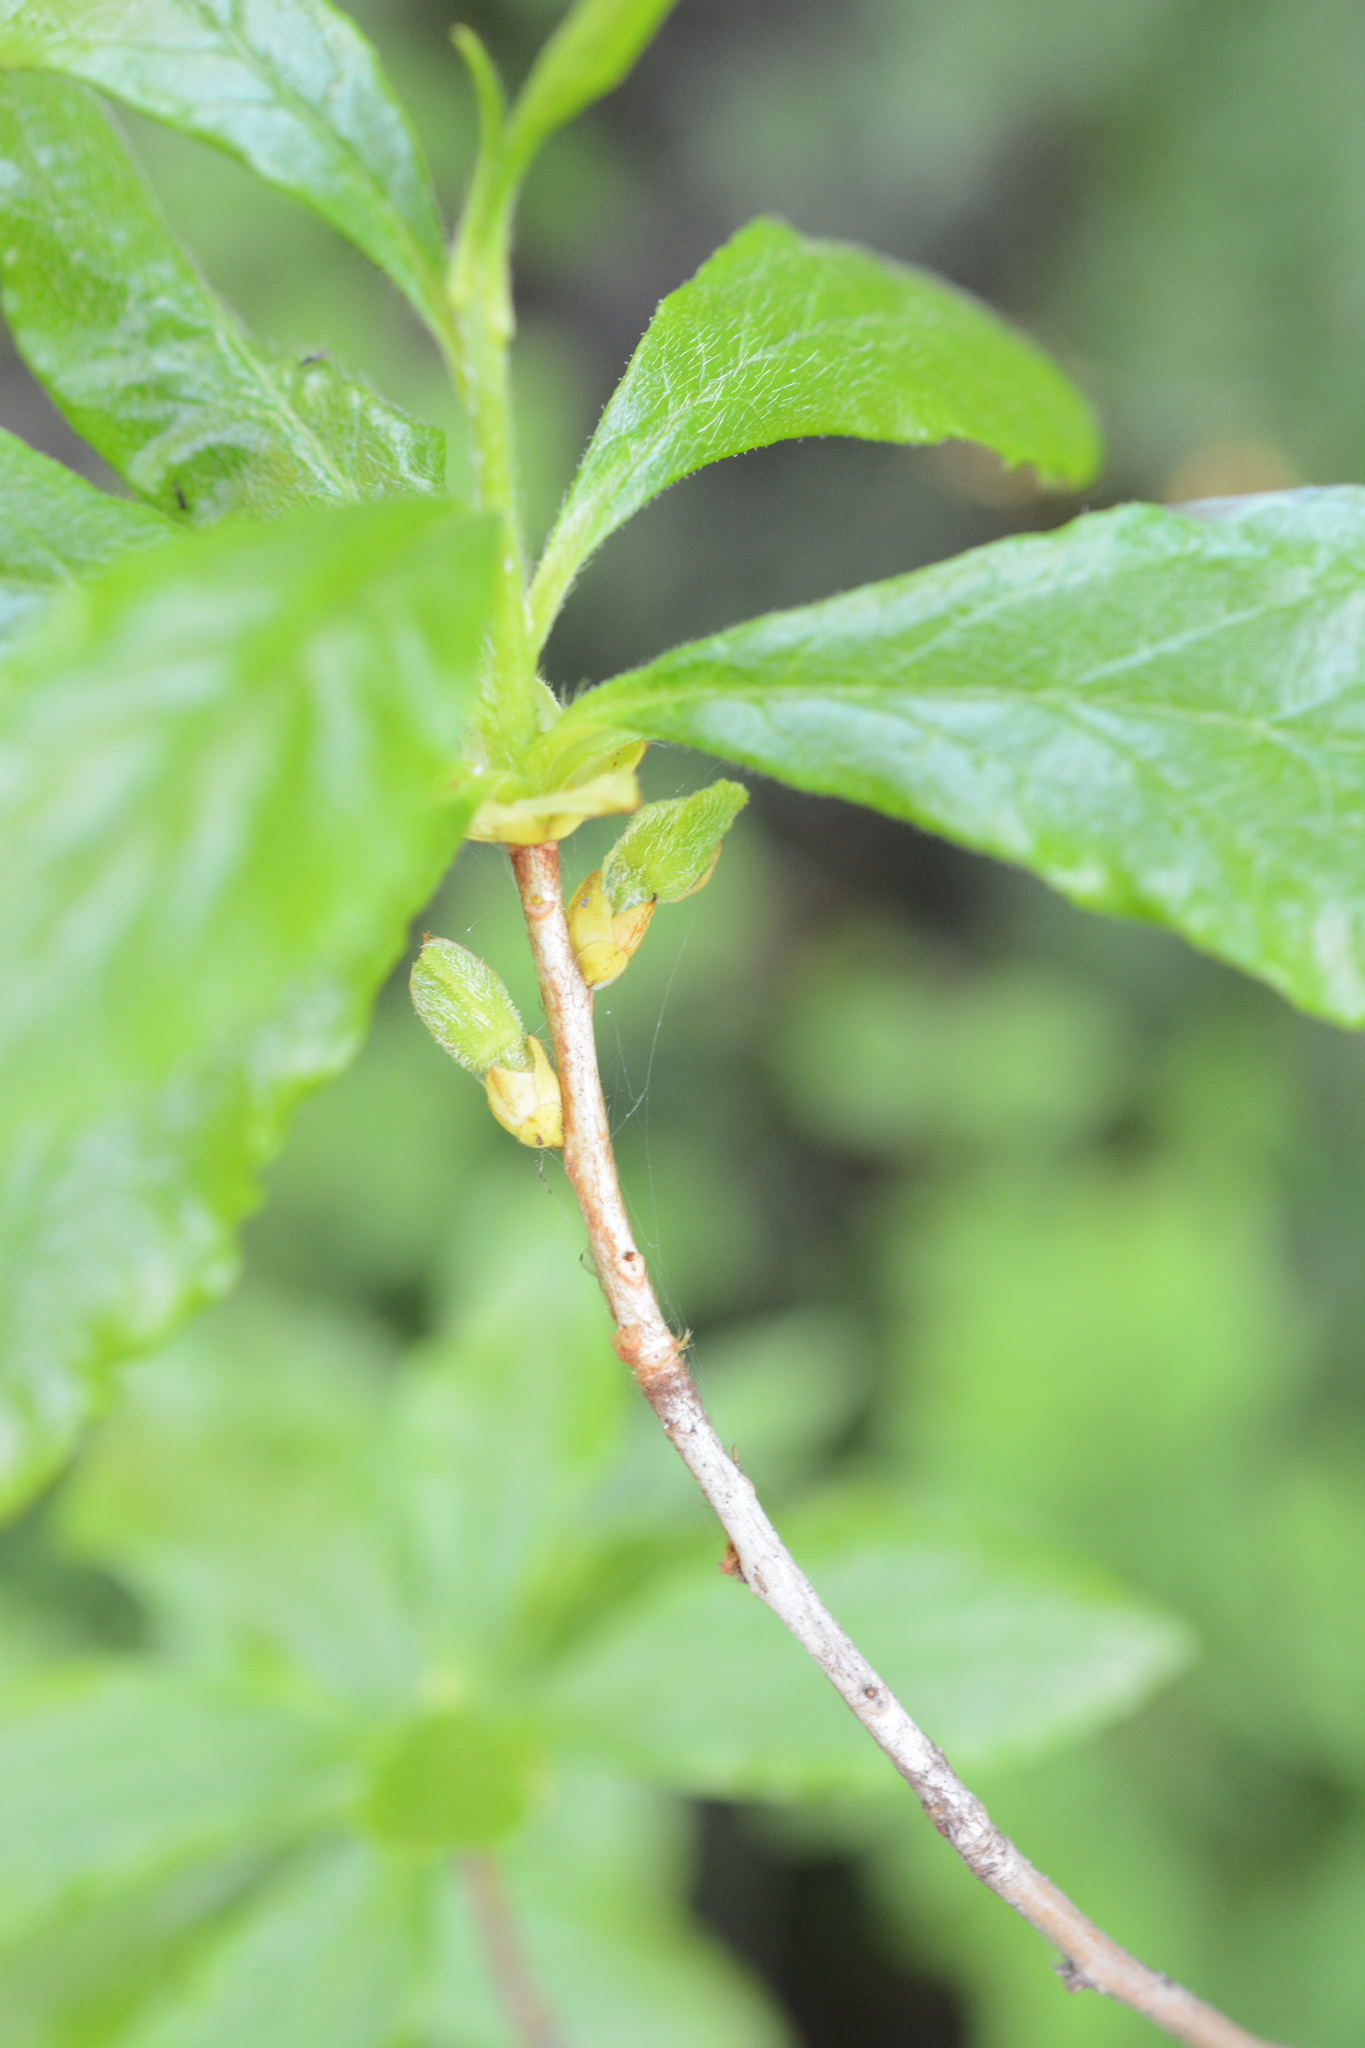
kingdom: Plantae
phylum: Tracheophyta
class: Magnoliopsida
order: Ericales
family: Ericaceae
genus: Rhododendron
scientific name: Rhododendron albiflorum
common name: White rhododendron
